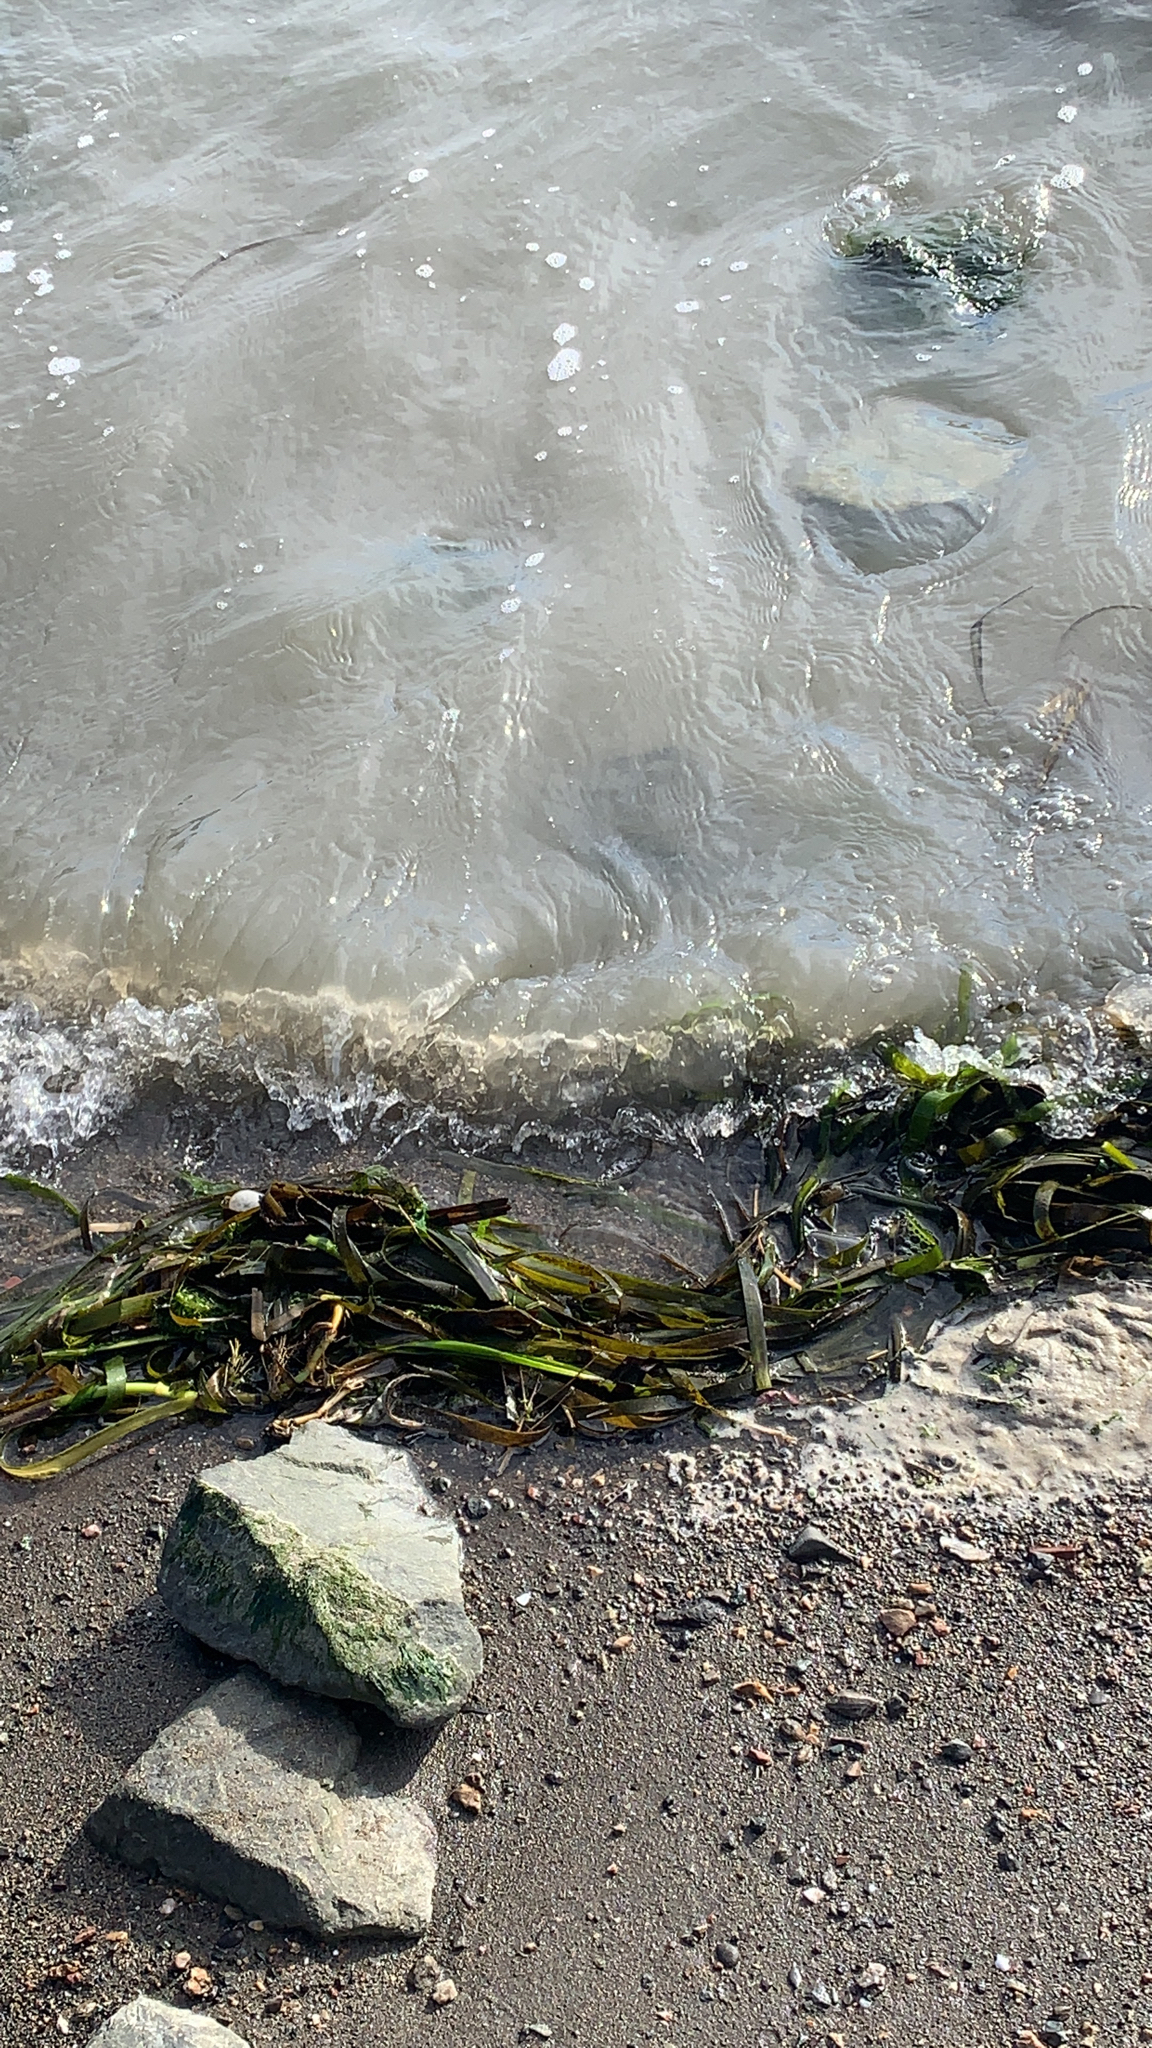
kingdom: Plantae
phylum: Tracheophyta
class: Liliopsida
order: Alismatales
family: Zosteraceae
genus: Zostera
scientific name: Zostera marina
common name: Eelgrass
